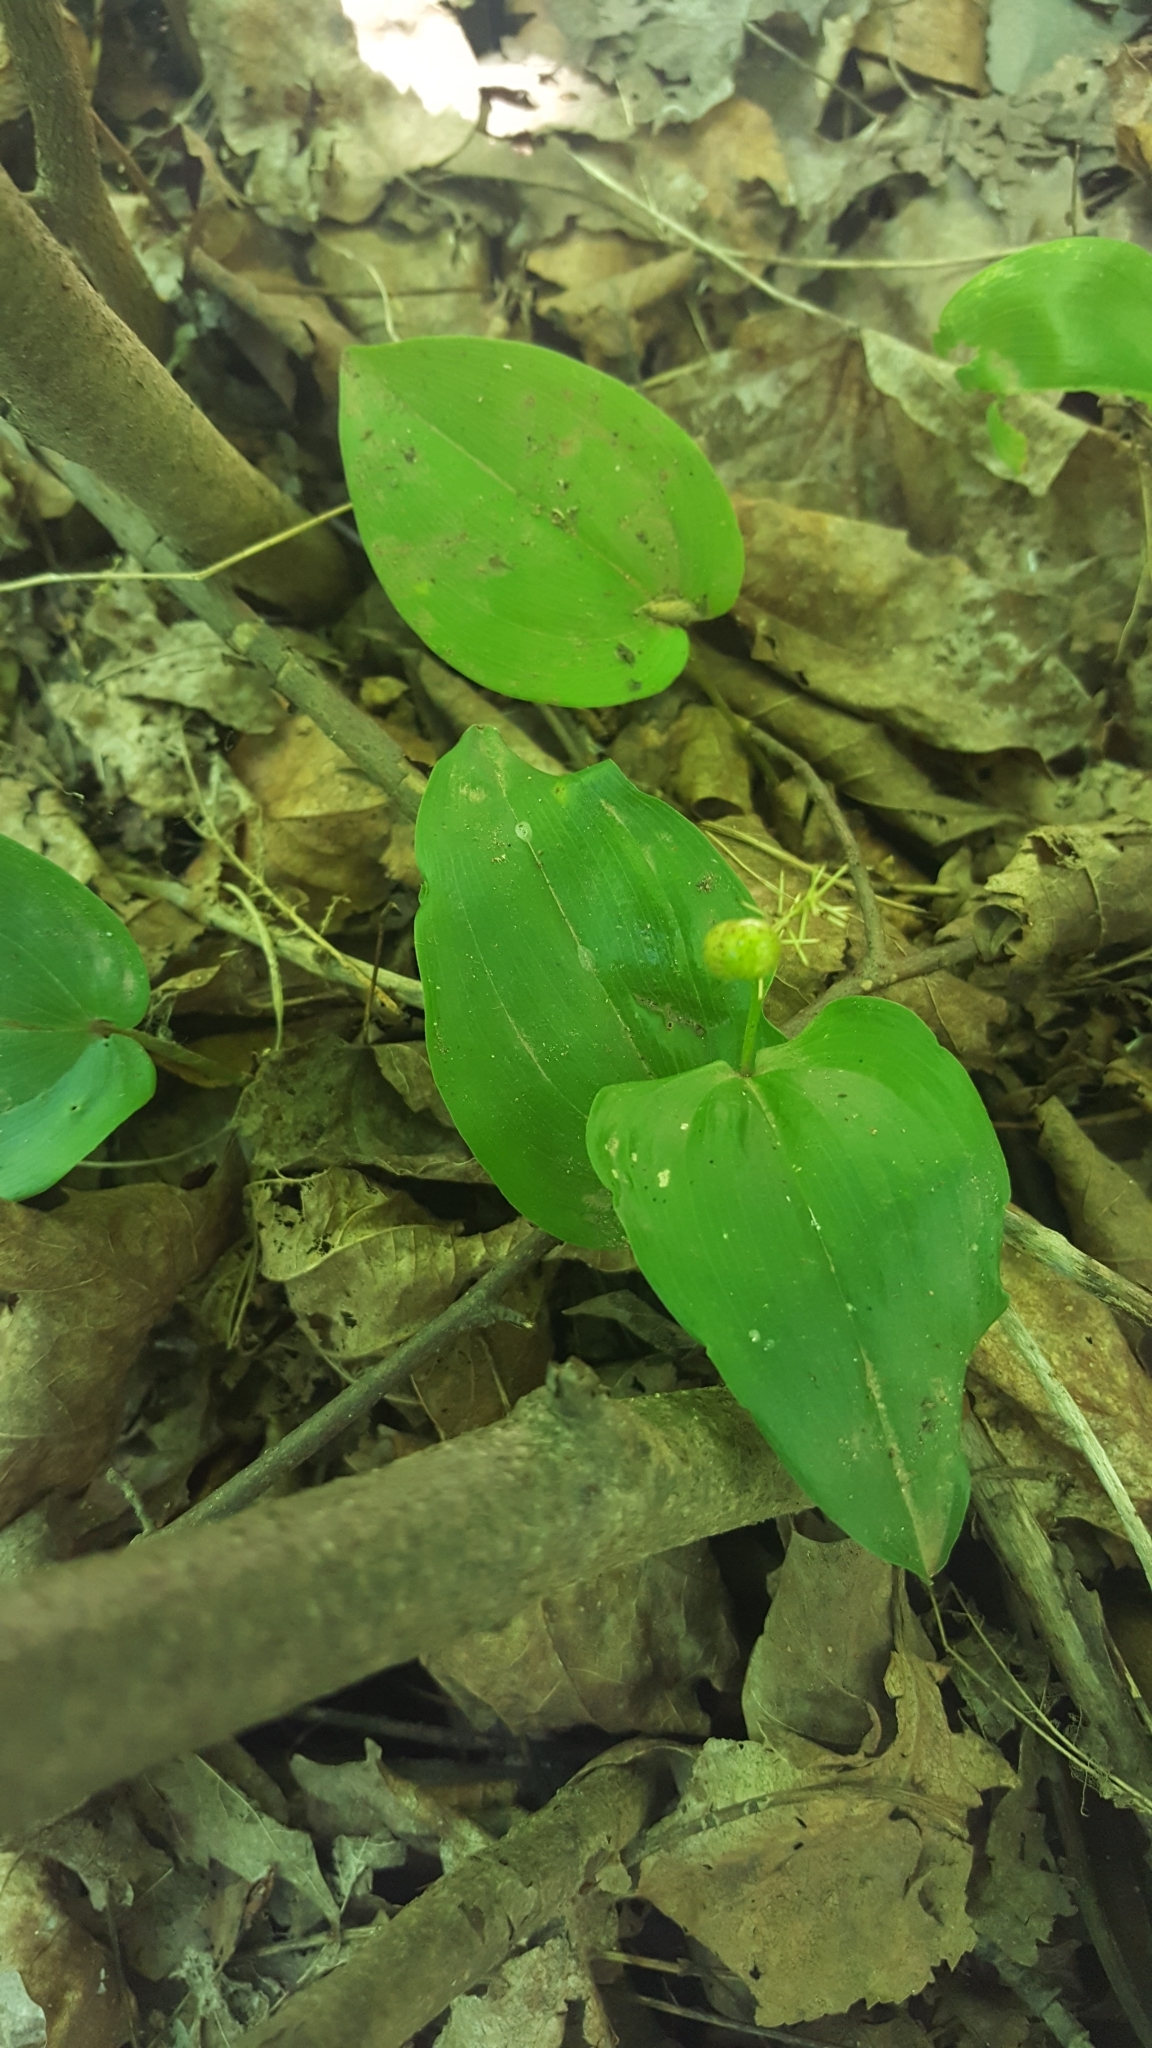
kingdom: Plantae
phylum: Tracheophyta
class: Liliopsida
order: Asparagales
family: Asparagaceae
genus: Maianthemum
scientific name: Maianthemum canadense
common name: False lily-of-the-valley
